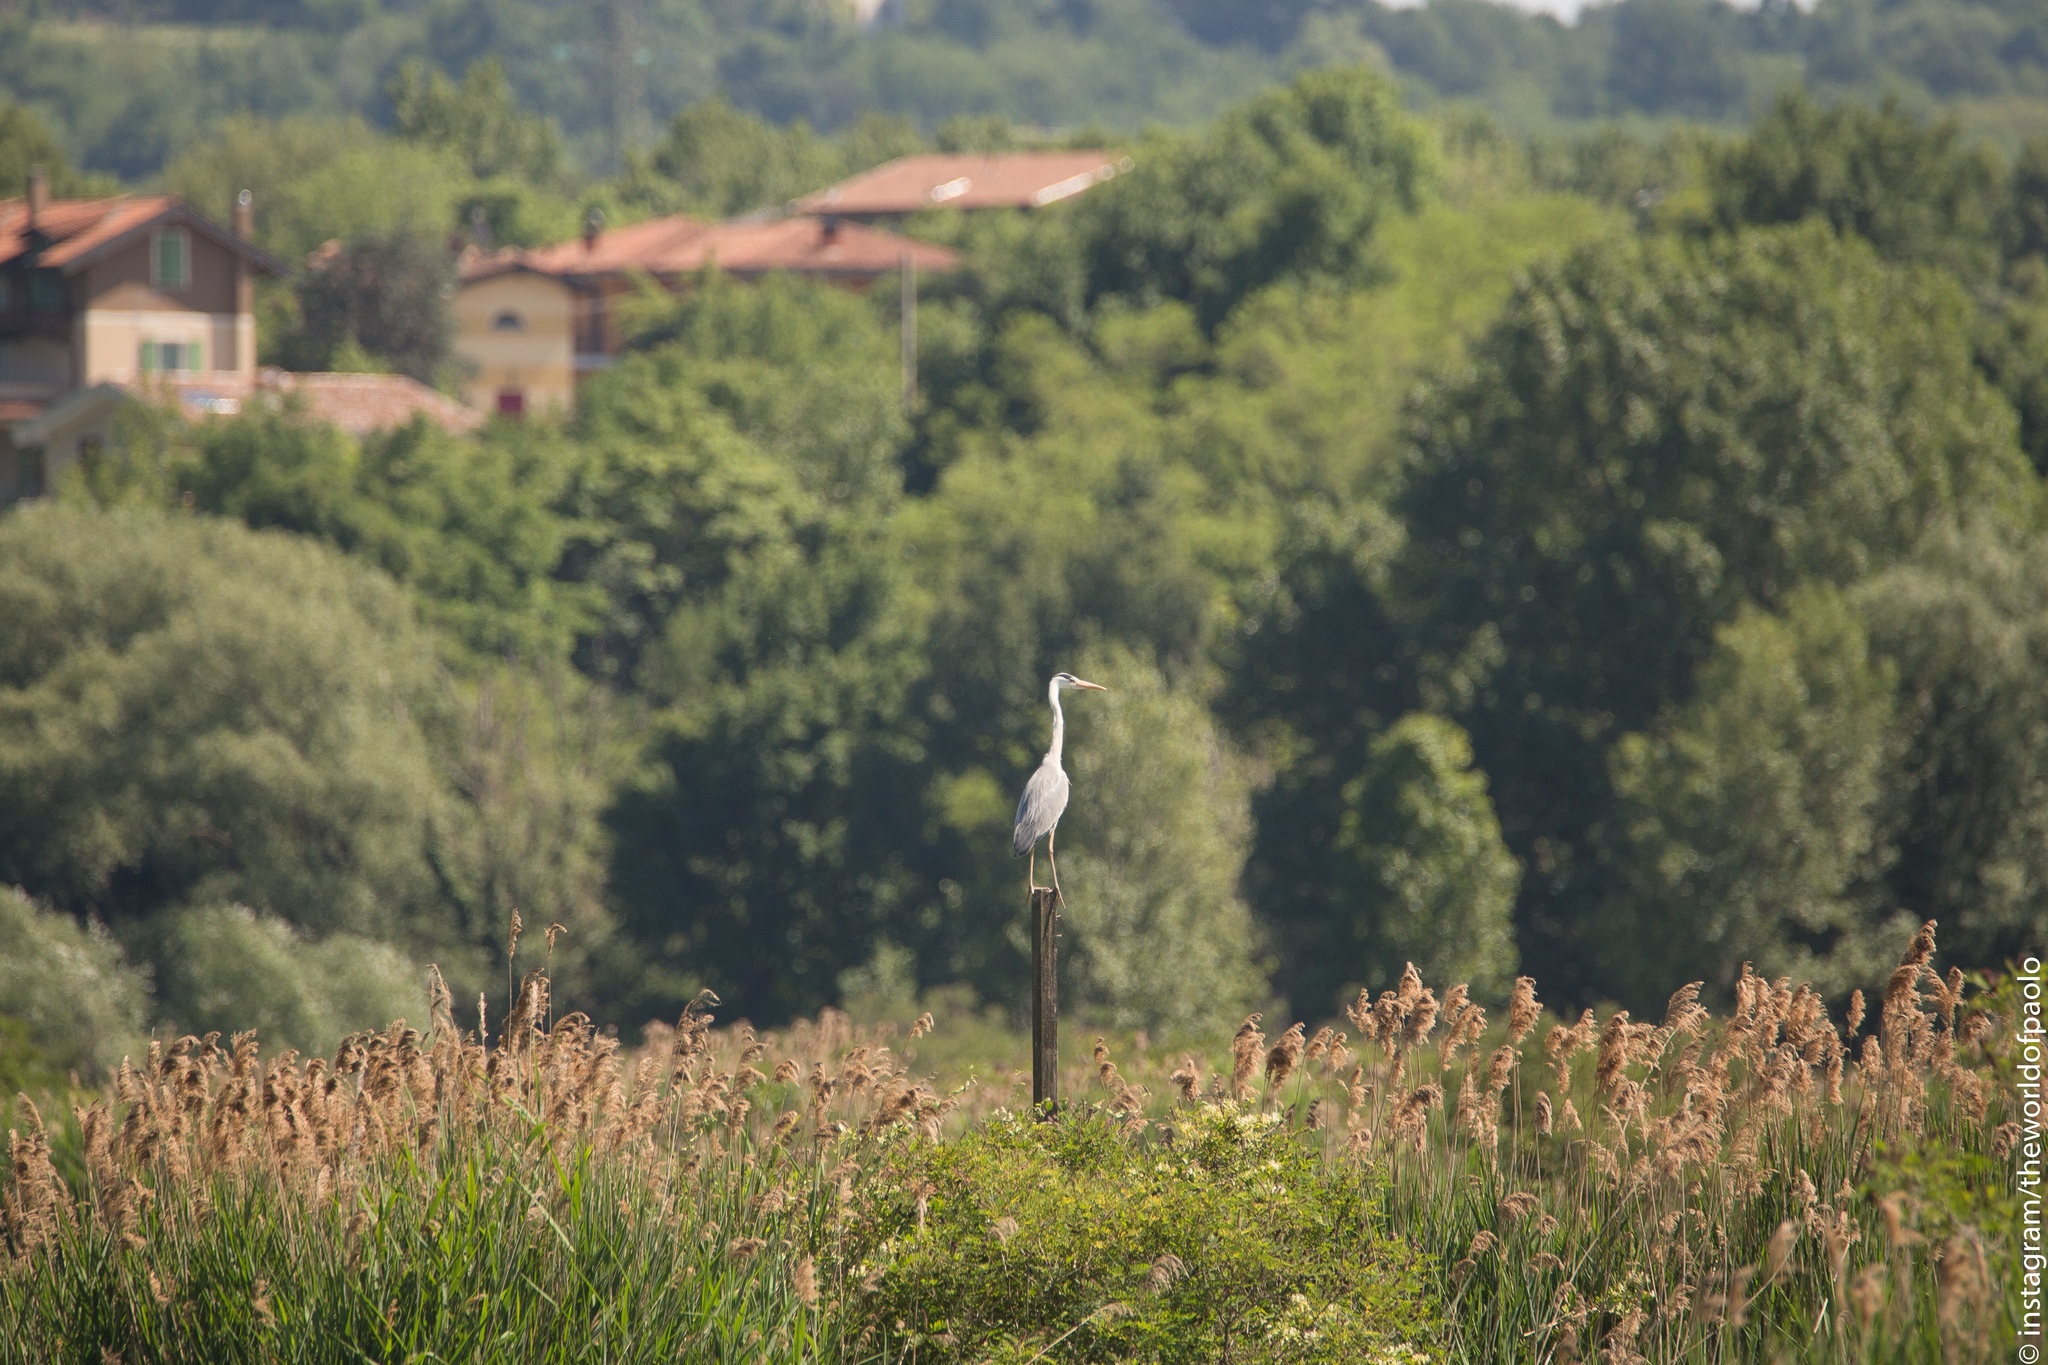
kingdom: Animalia
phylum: Chordata
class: Aves
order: Pelecaniformes
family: Ardeidae
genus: Ardea
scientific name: Ardea cinerea
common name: Grey heron
